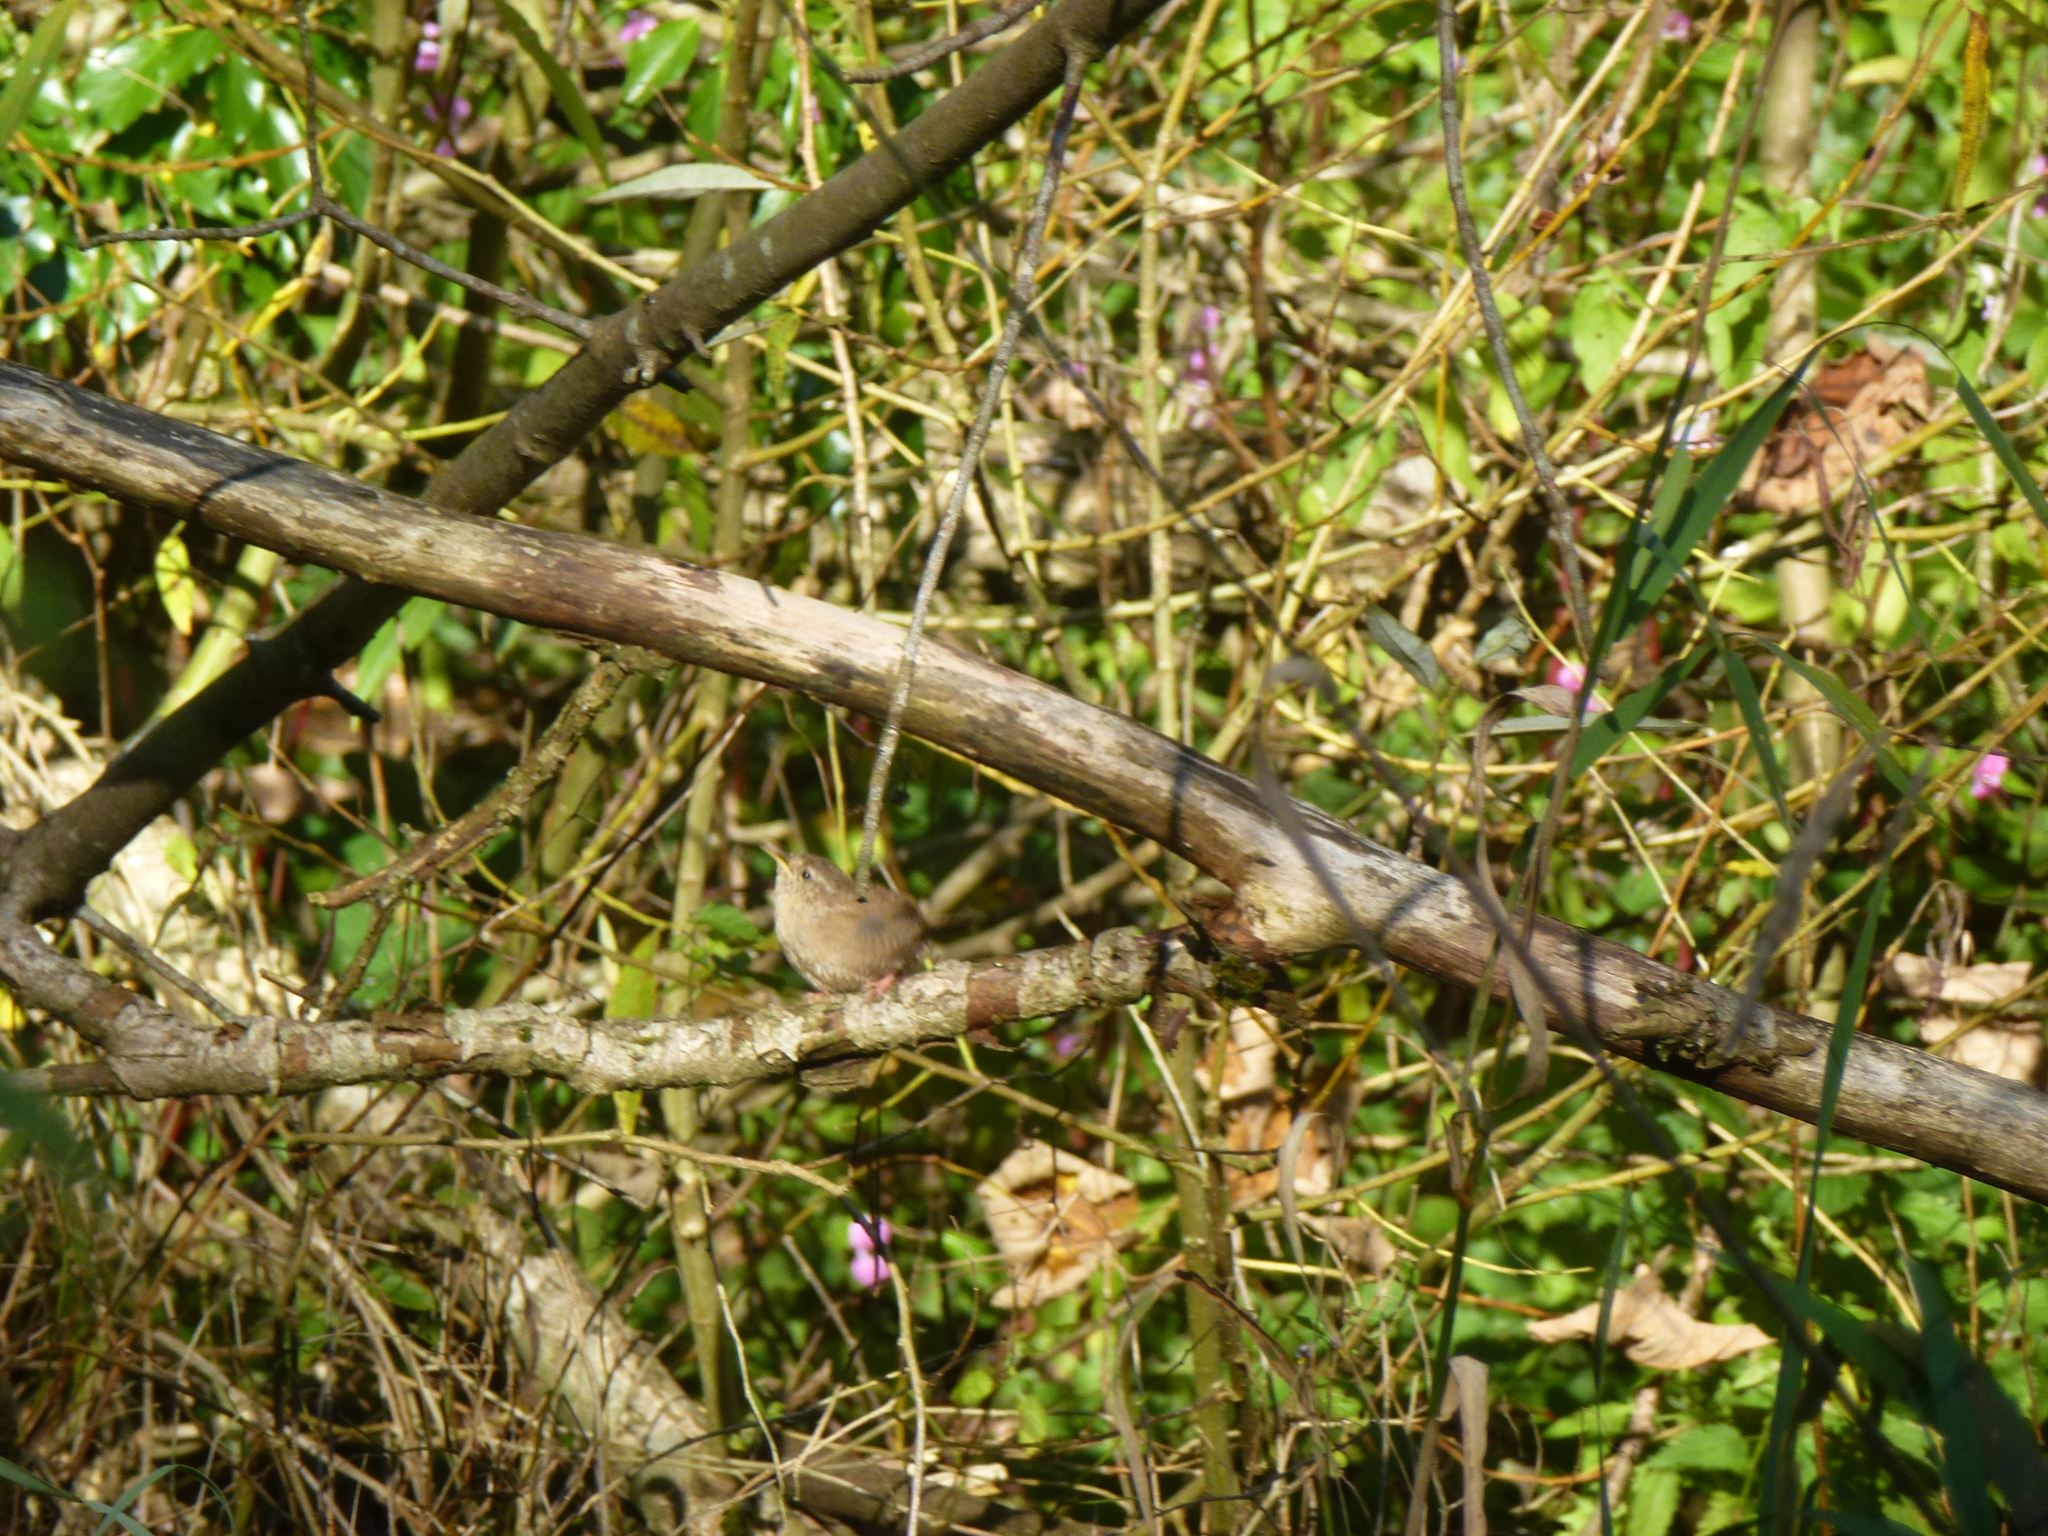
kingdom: Animalia
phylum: Chordata
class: Aves
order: Passeriformes
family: Troglodytidae
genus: Troglodytes
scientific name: Troglodytes troglodytes
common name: Eurasian wren
